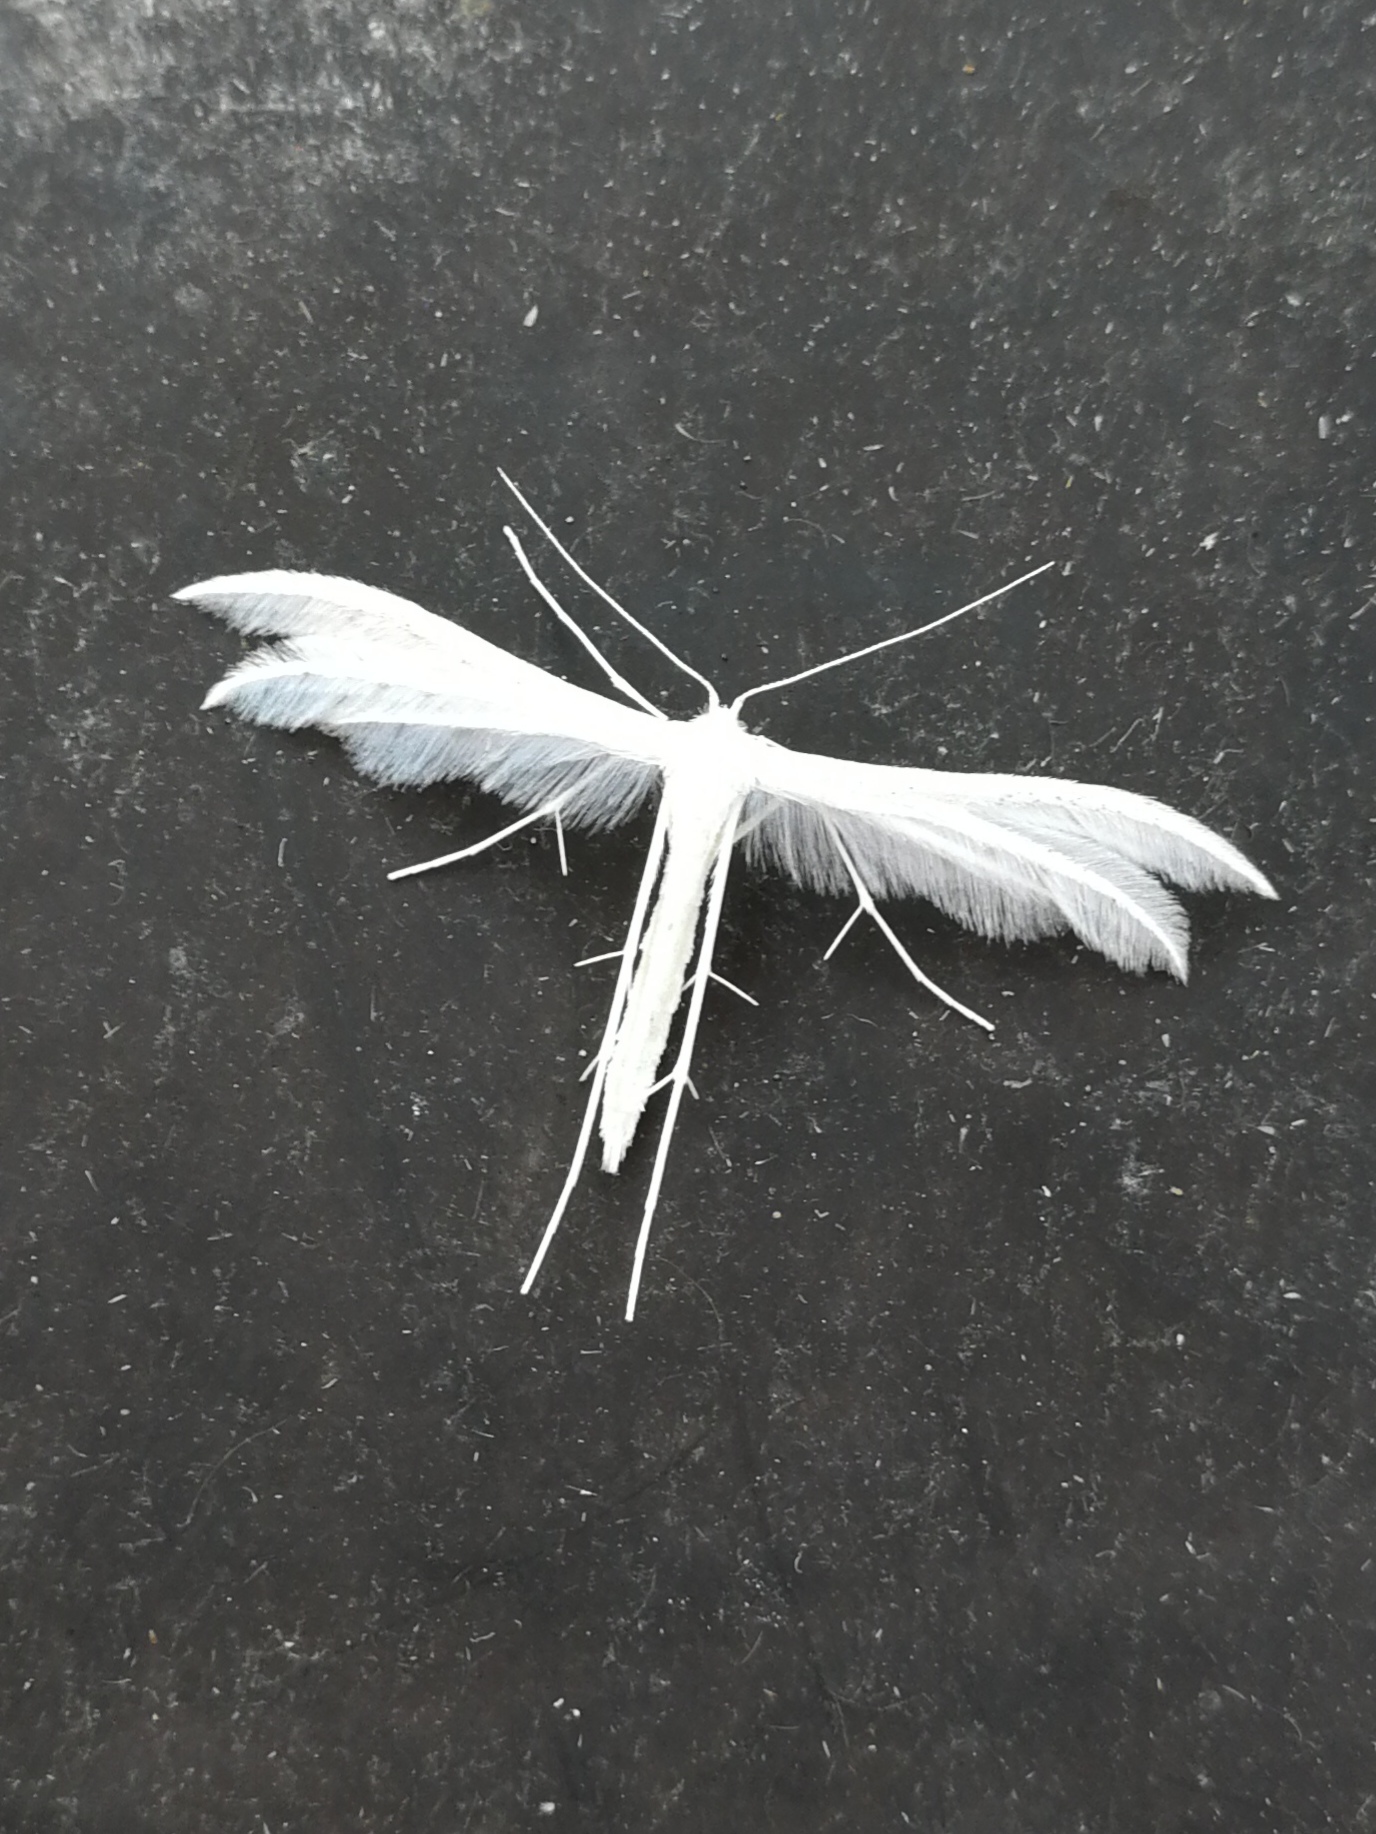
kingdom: Animalia
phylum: Arthropoda
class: Insecta
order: Lepidoptera
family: Pterophoridae
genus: Pterophorus
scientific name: Pterophorus pentadactyla
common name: White plume moth
